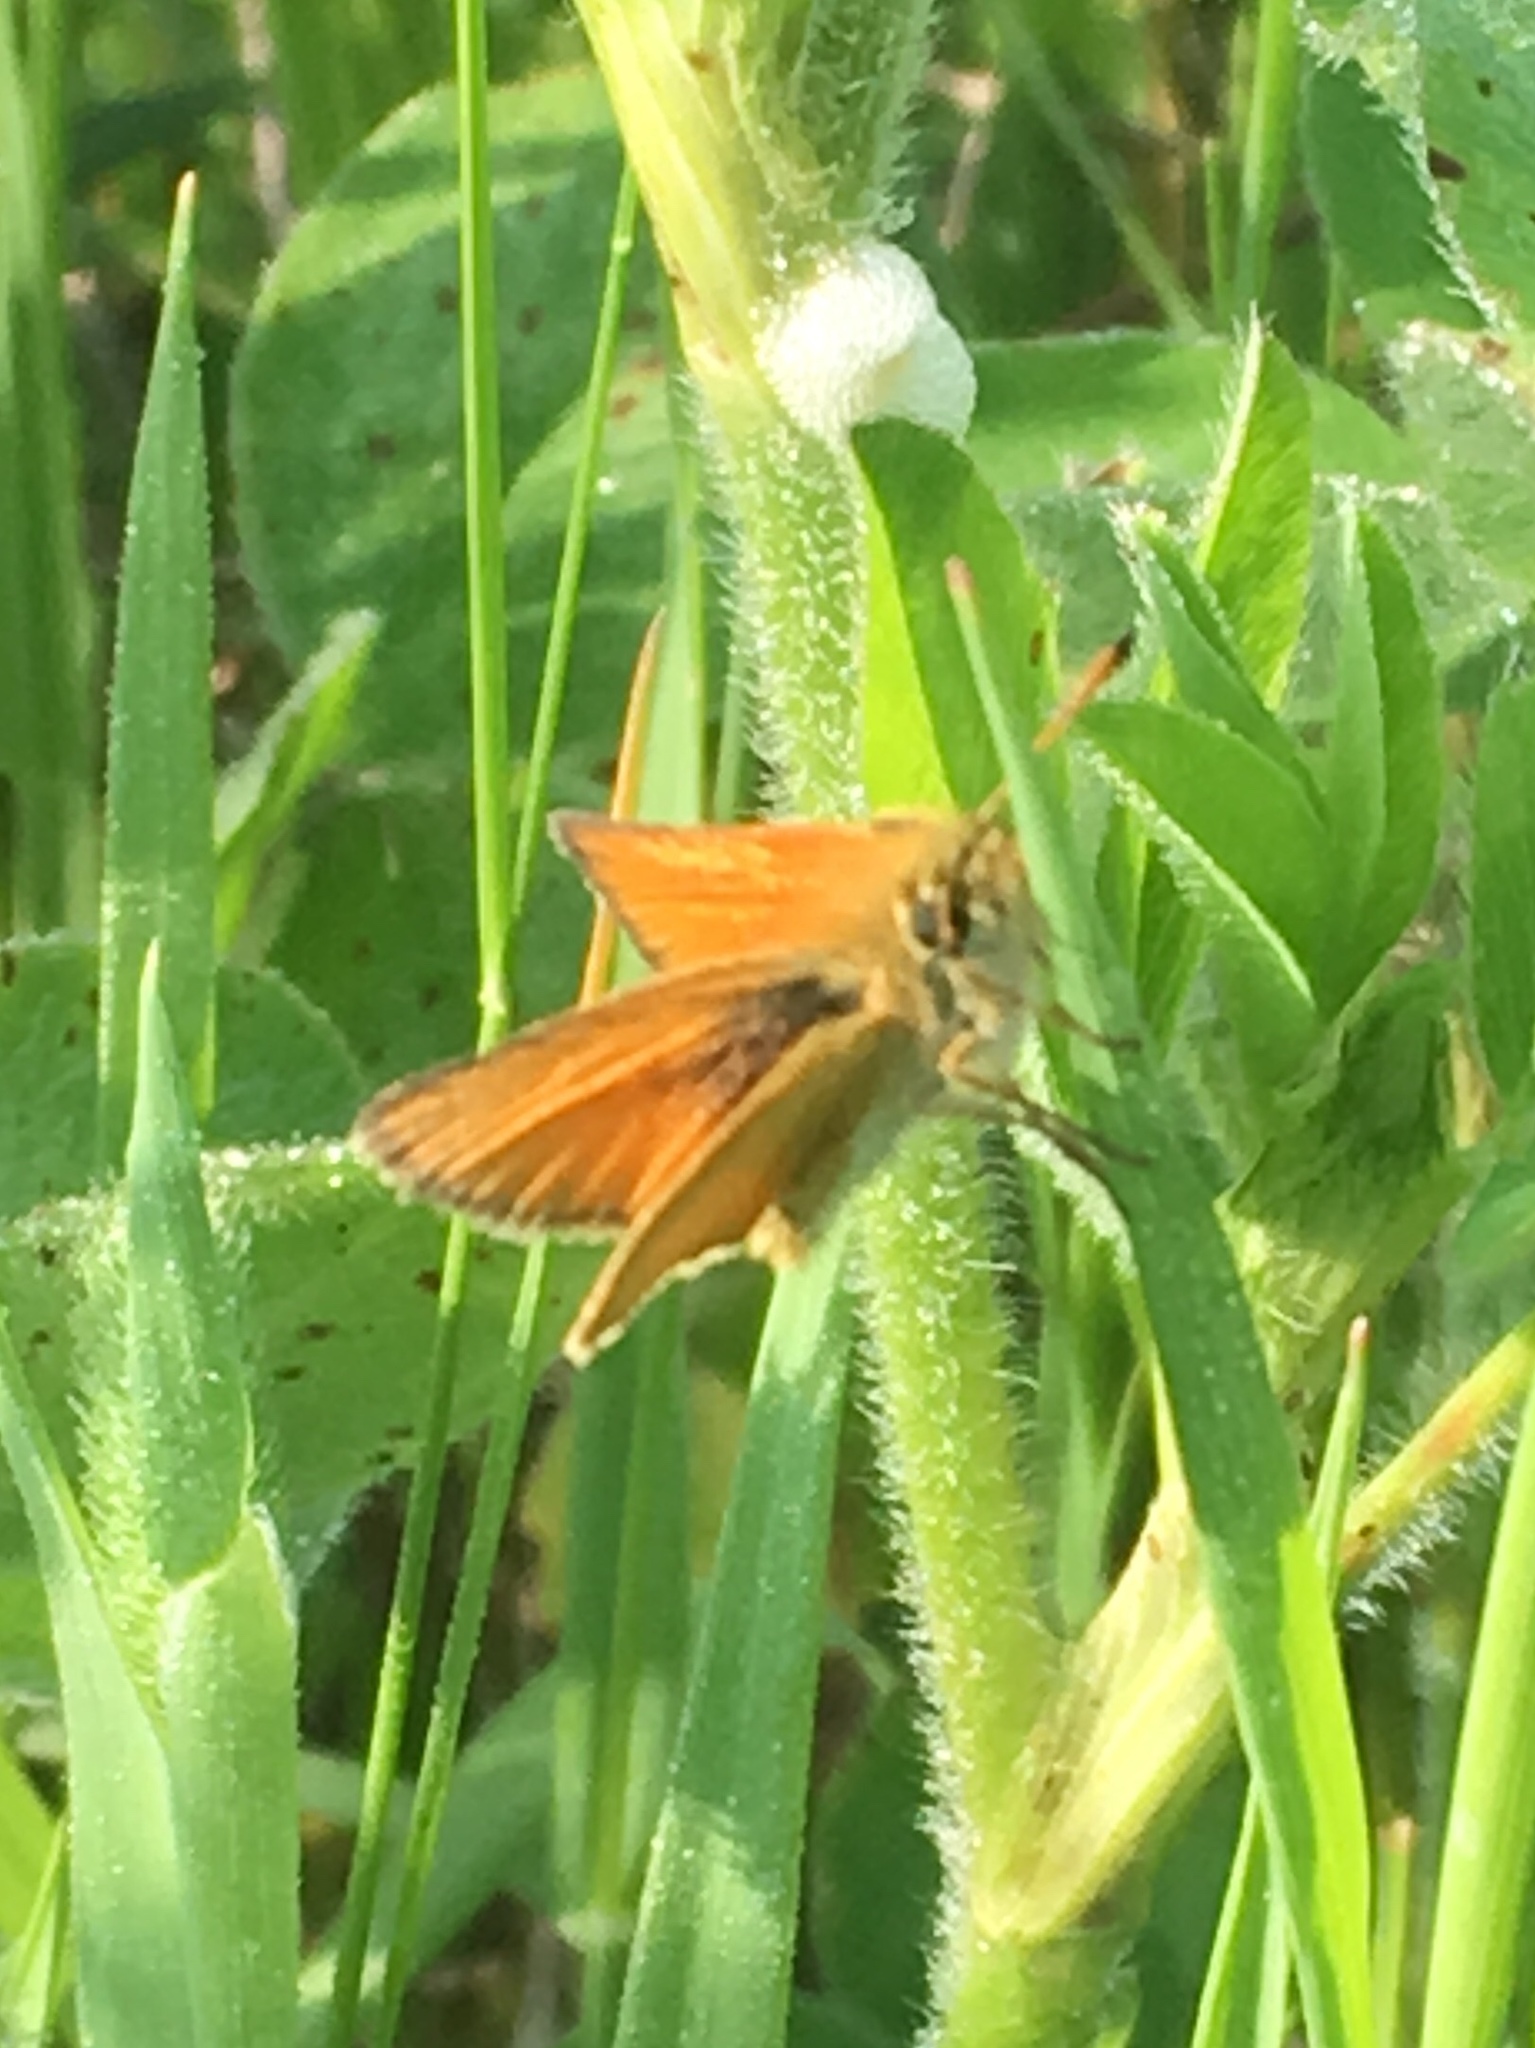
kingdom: Animalia
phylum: Arthropoda
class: Insecta
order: Lepidoptera
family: Hesperiidae
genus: Thymelicus
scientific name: Thymelicus lineola
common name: Essex skipper
